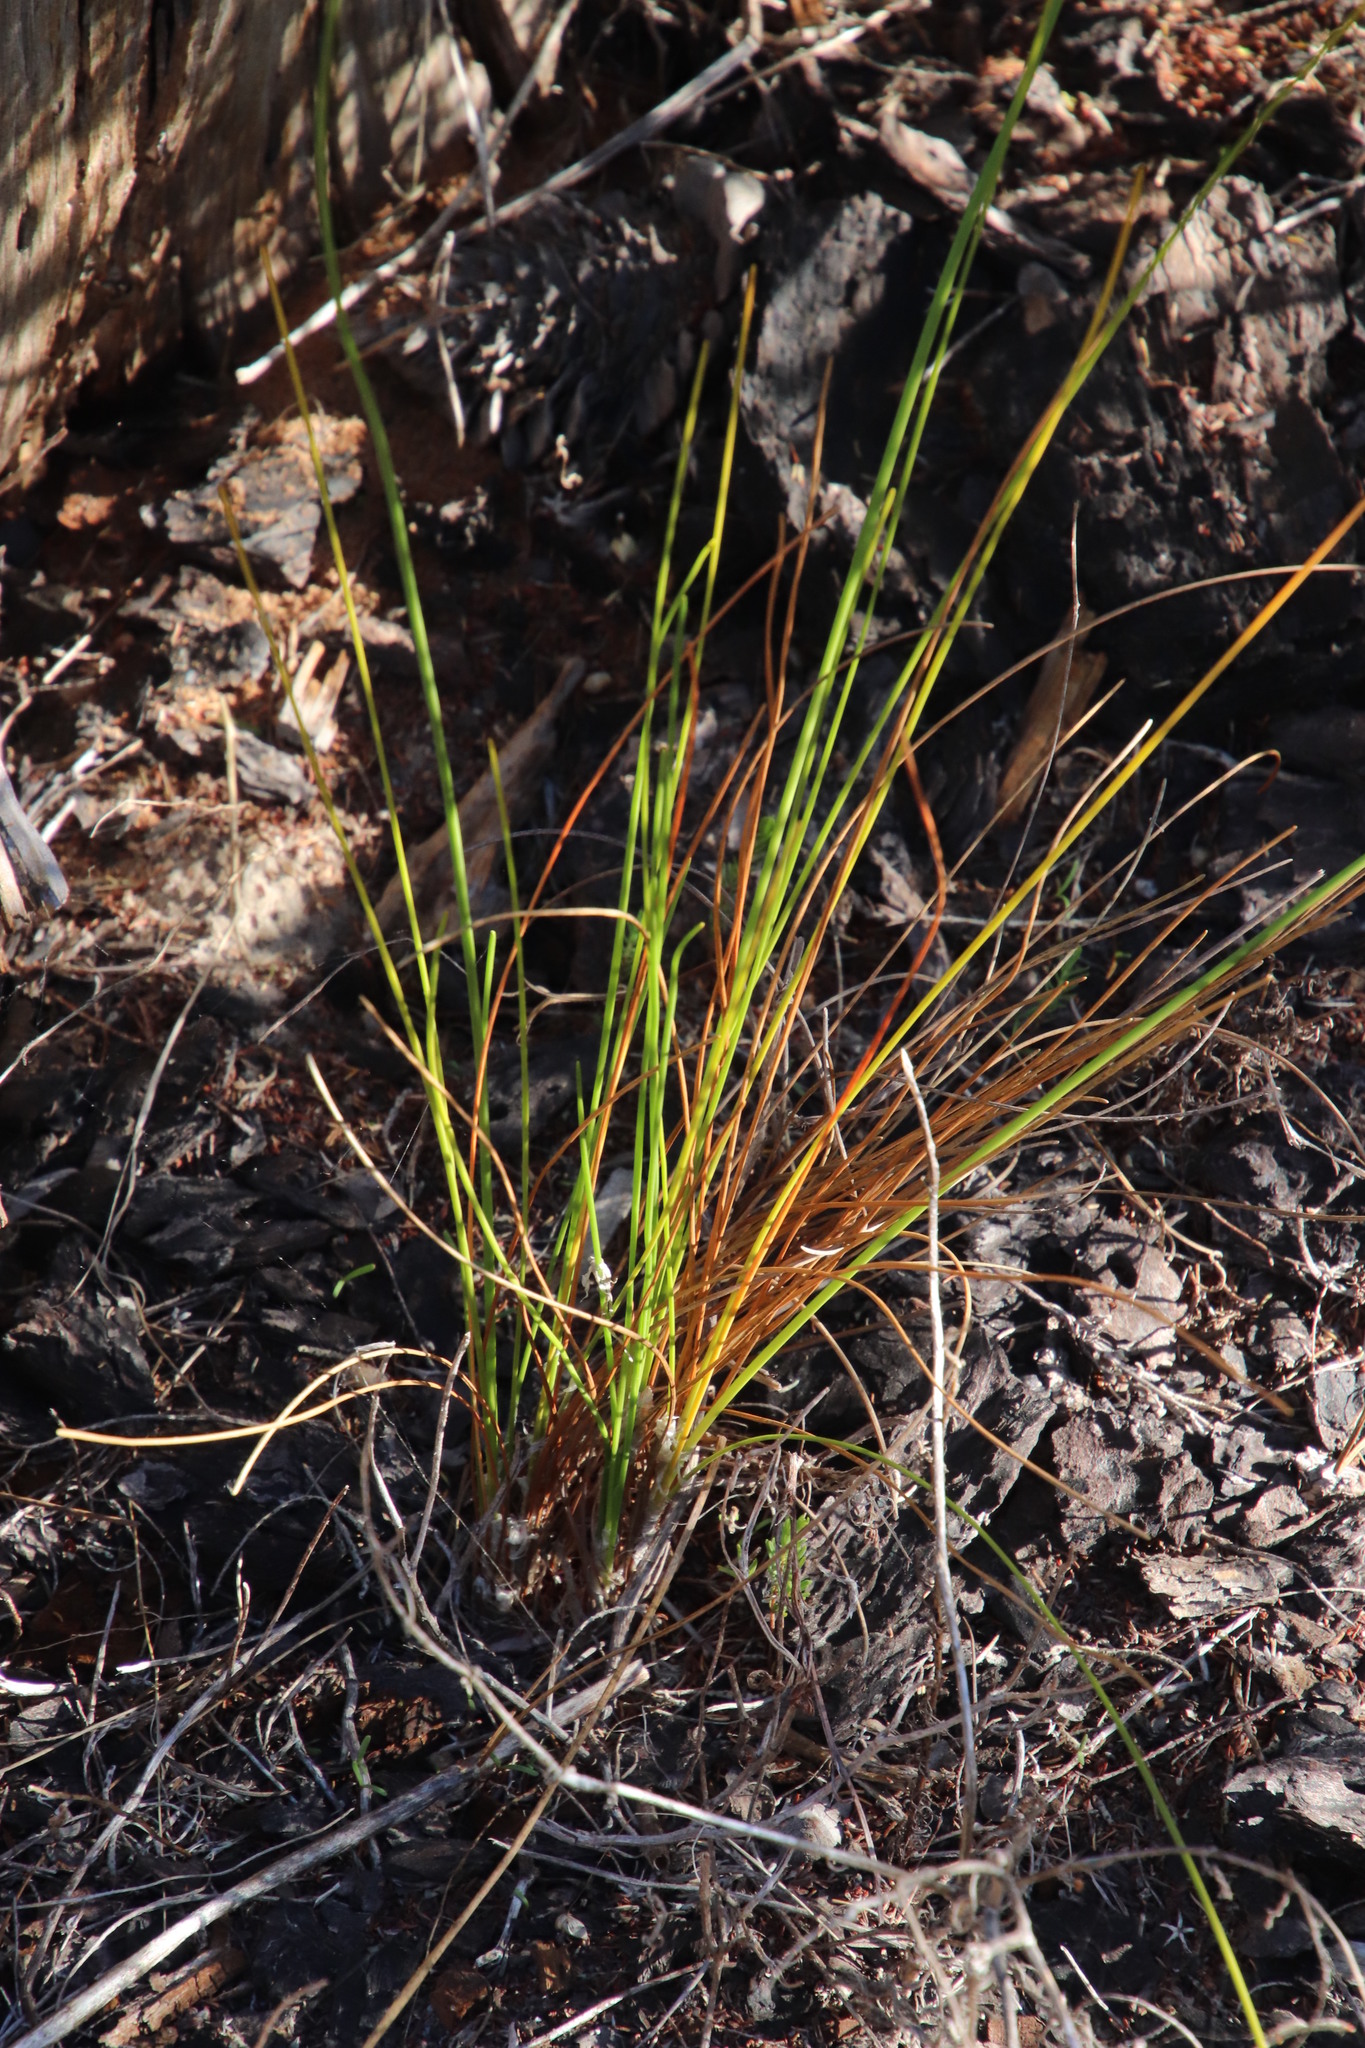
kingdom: Plantae
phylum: Tracheophyta
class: Liliopsida
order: Poales
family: Cyperaceae
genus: Ficinia
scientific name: Ficinia deusta
